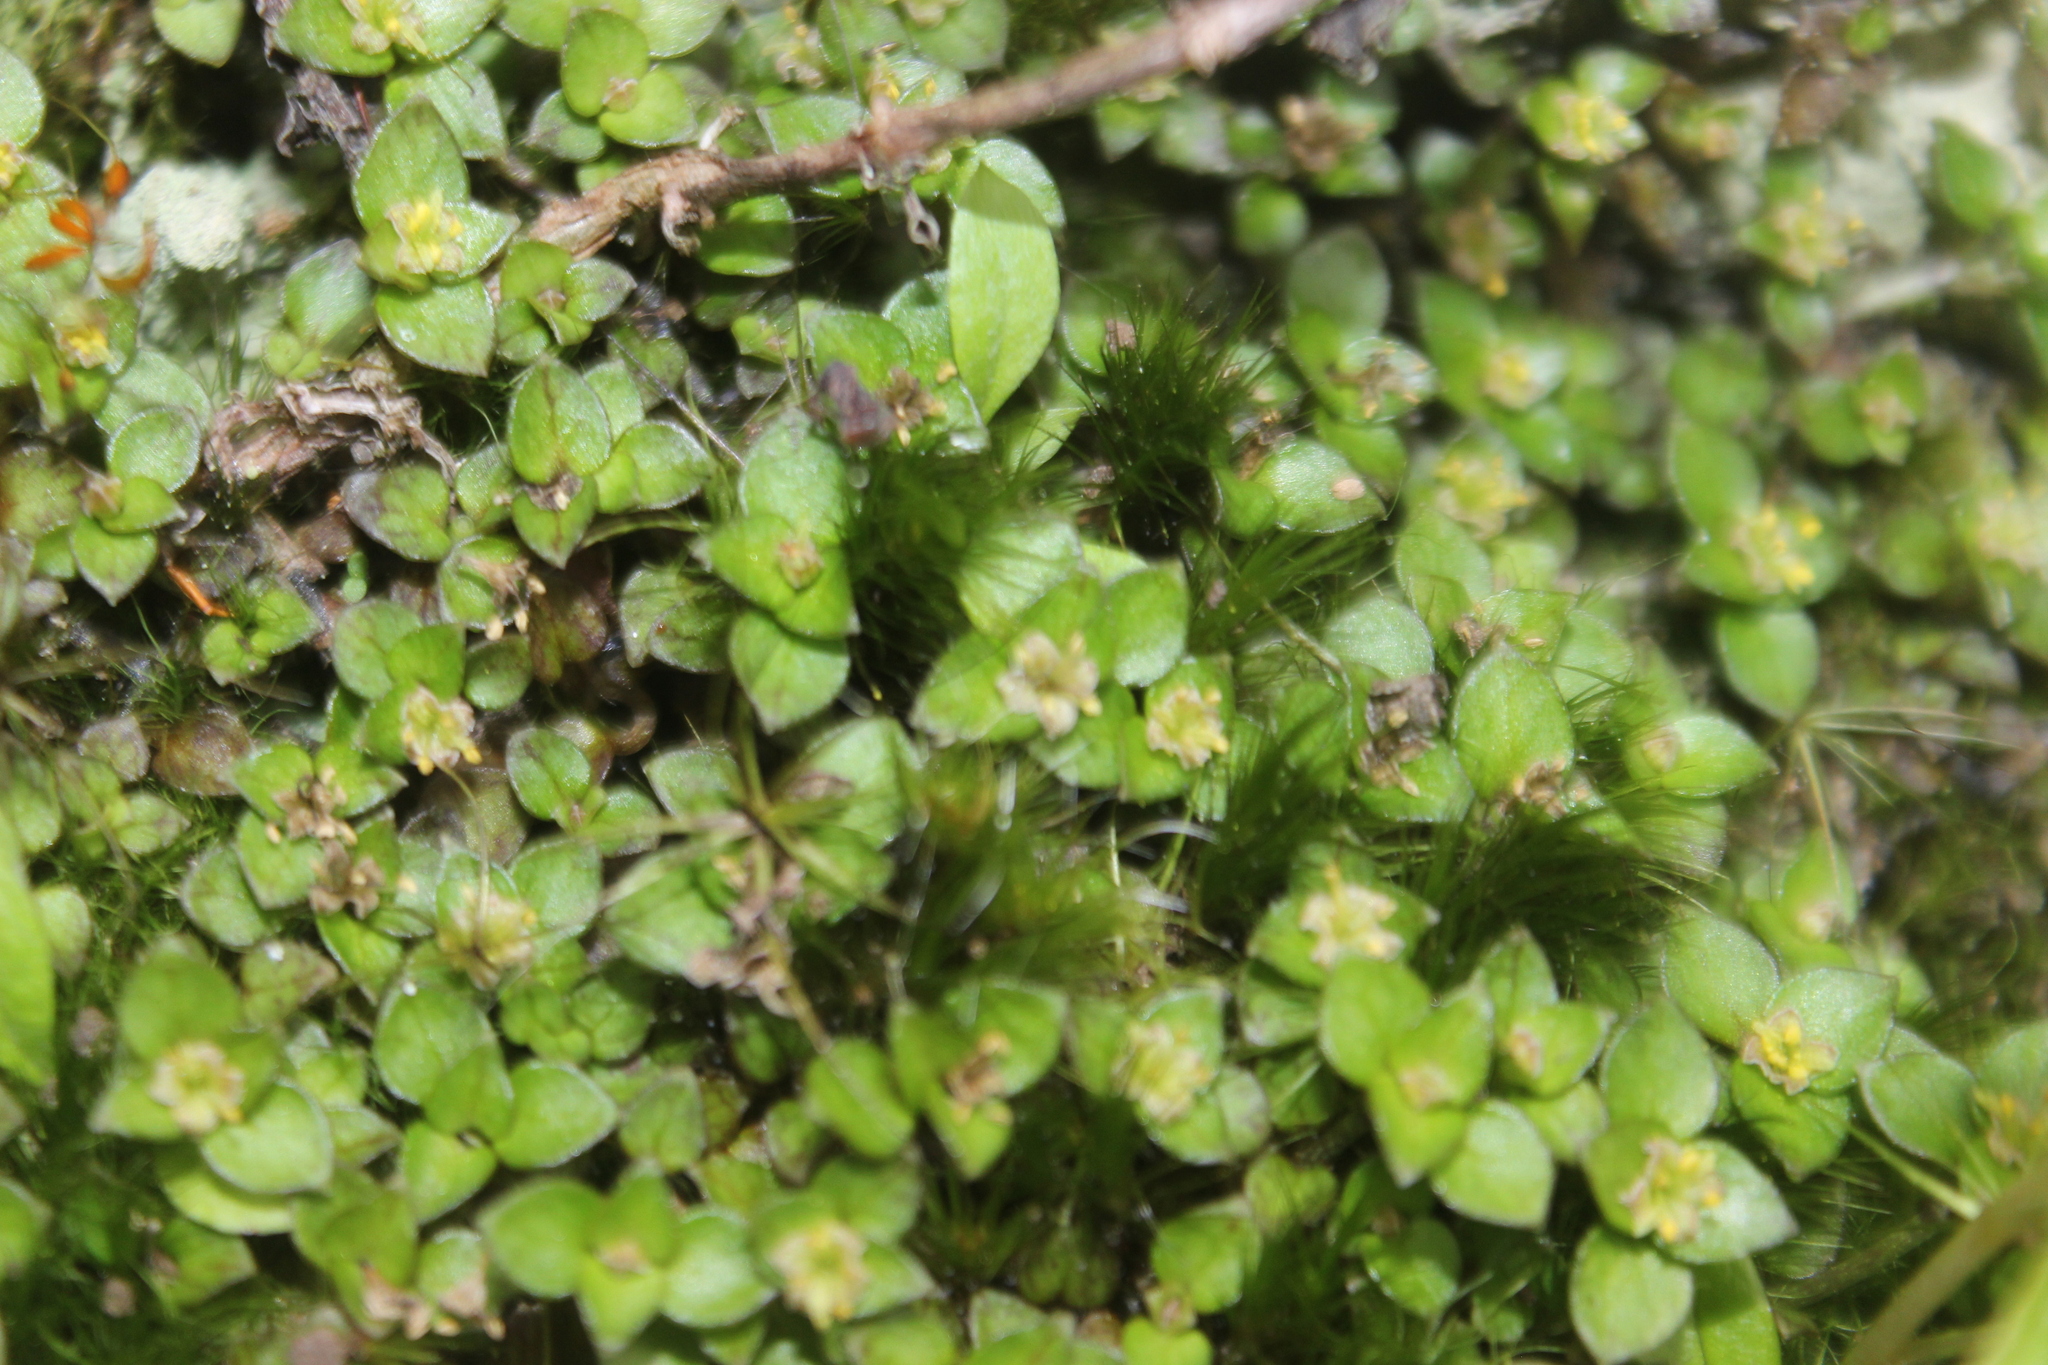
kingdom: Plantae
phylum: Tracheophyta
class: Magnoliopsida
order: Gentianales
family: Rubiaceae
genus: Nertera
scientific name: Nertera granadensis
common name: Beadplant
